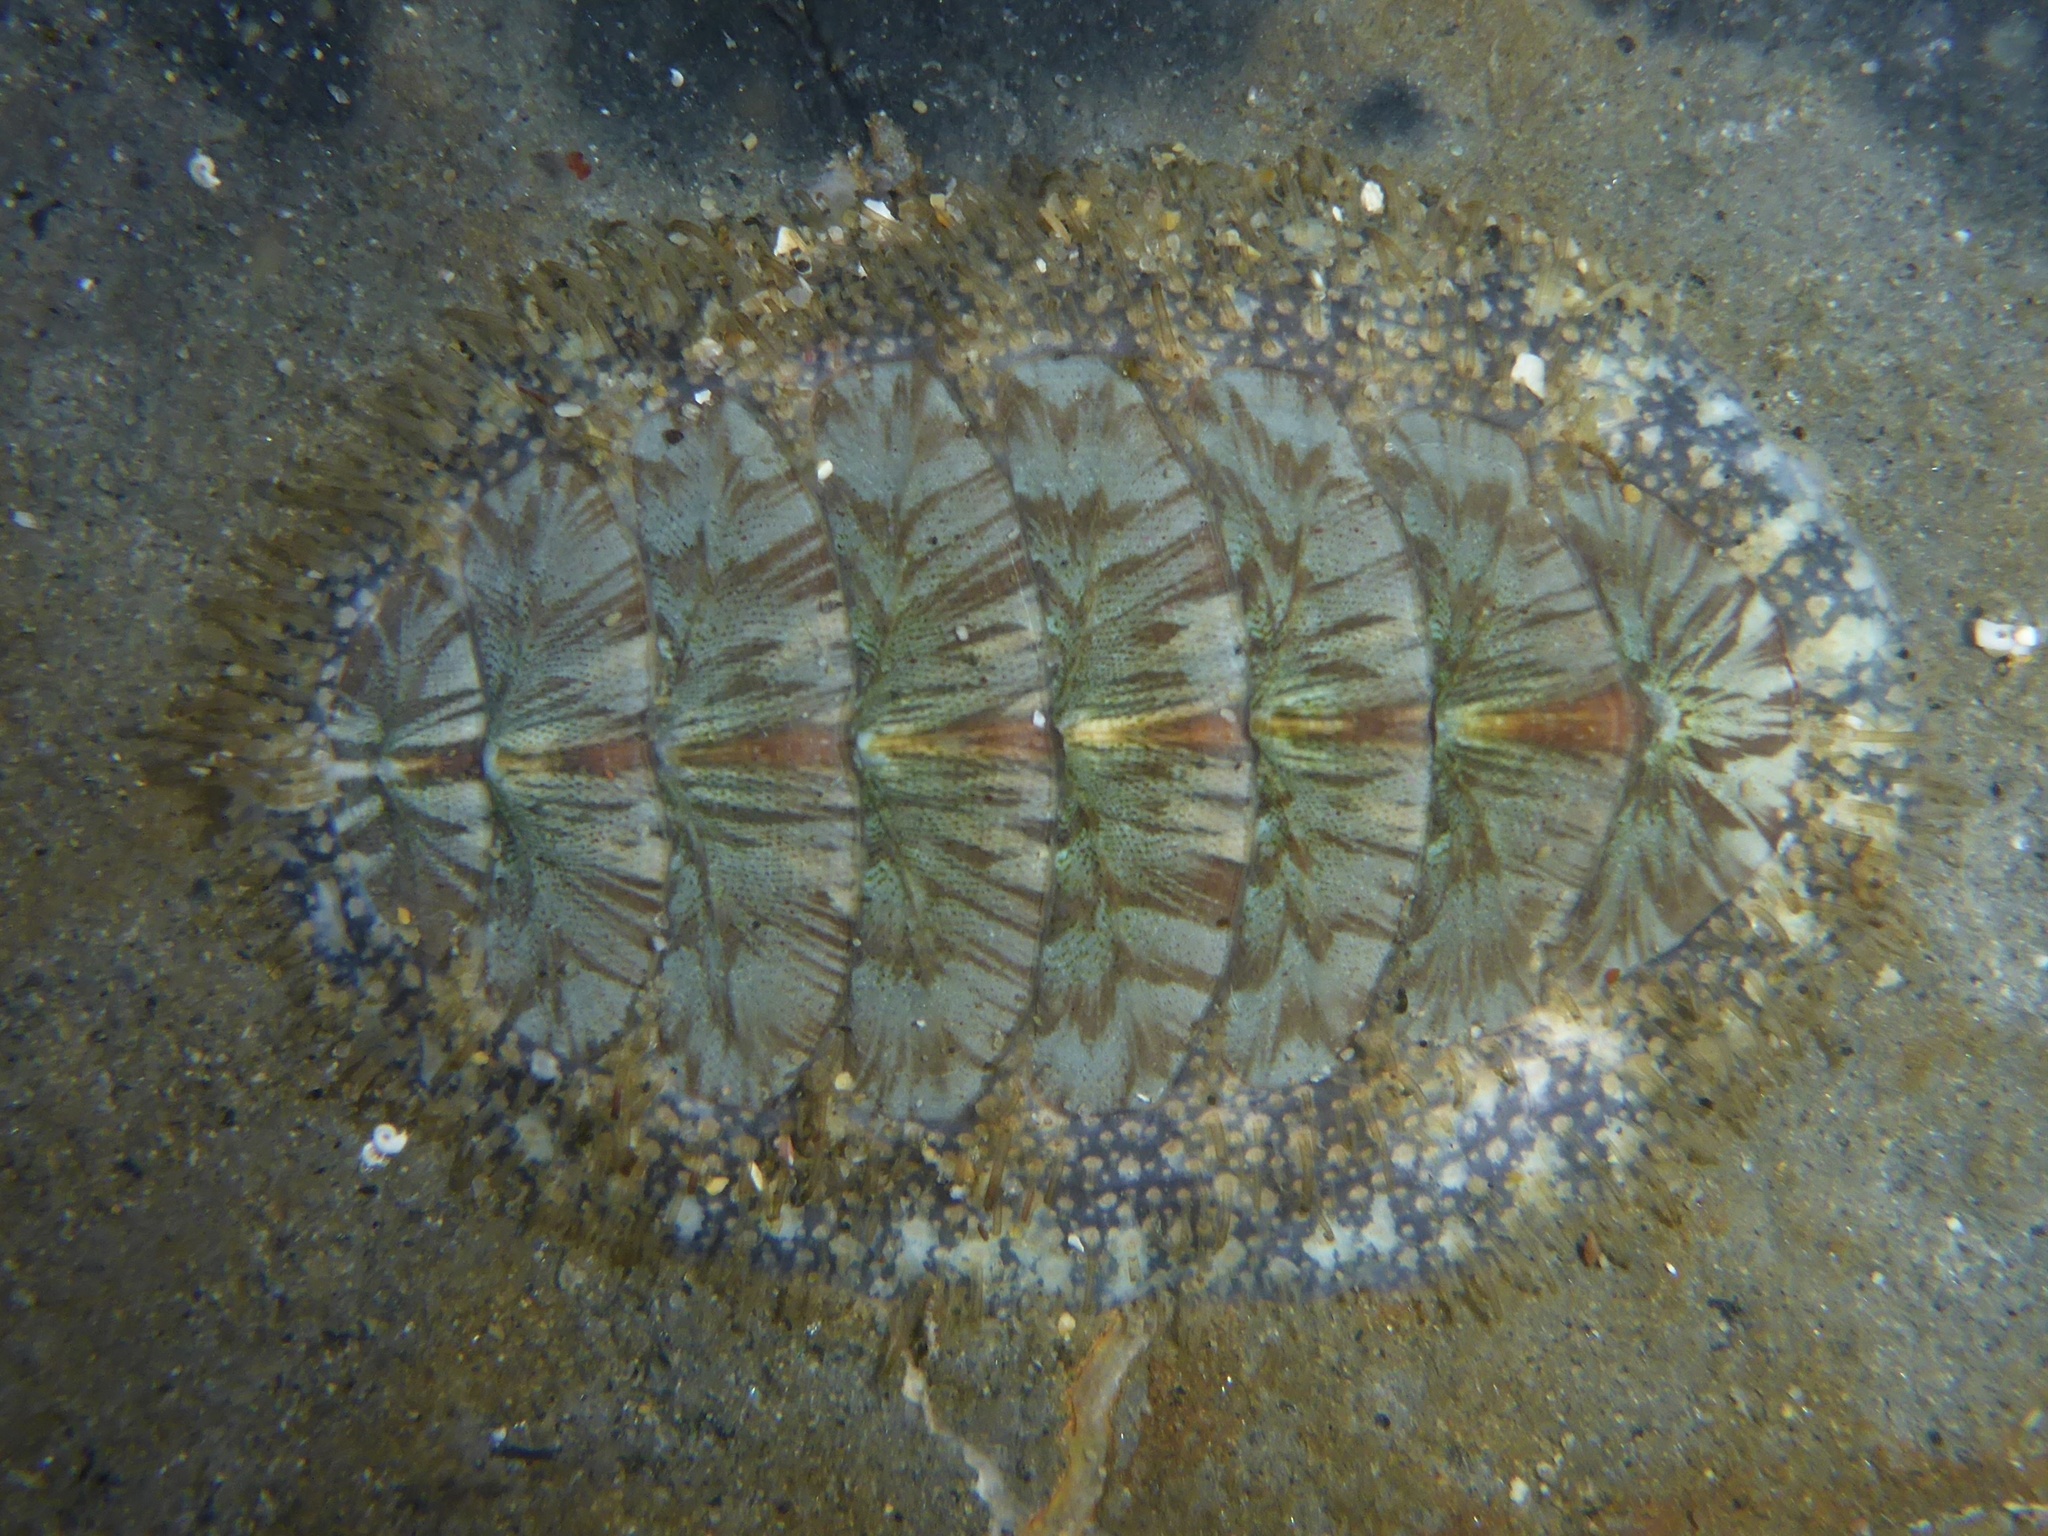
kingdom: Animalia
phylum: Mollusca
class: Polyplacophora
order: Chitonida
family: Mopaliidae
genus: Mopalia
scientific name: Mopalia lignosa
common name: Woody chiton
